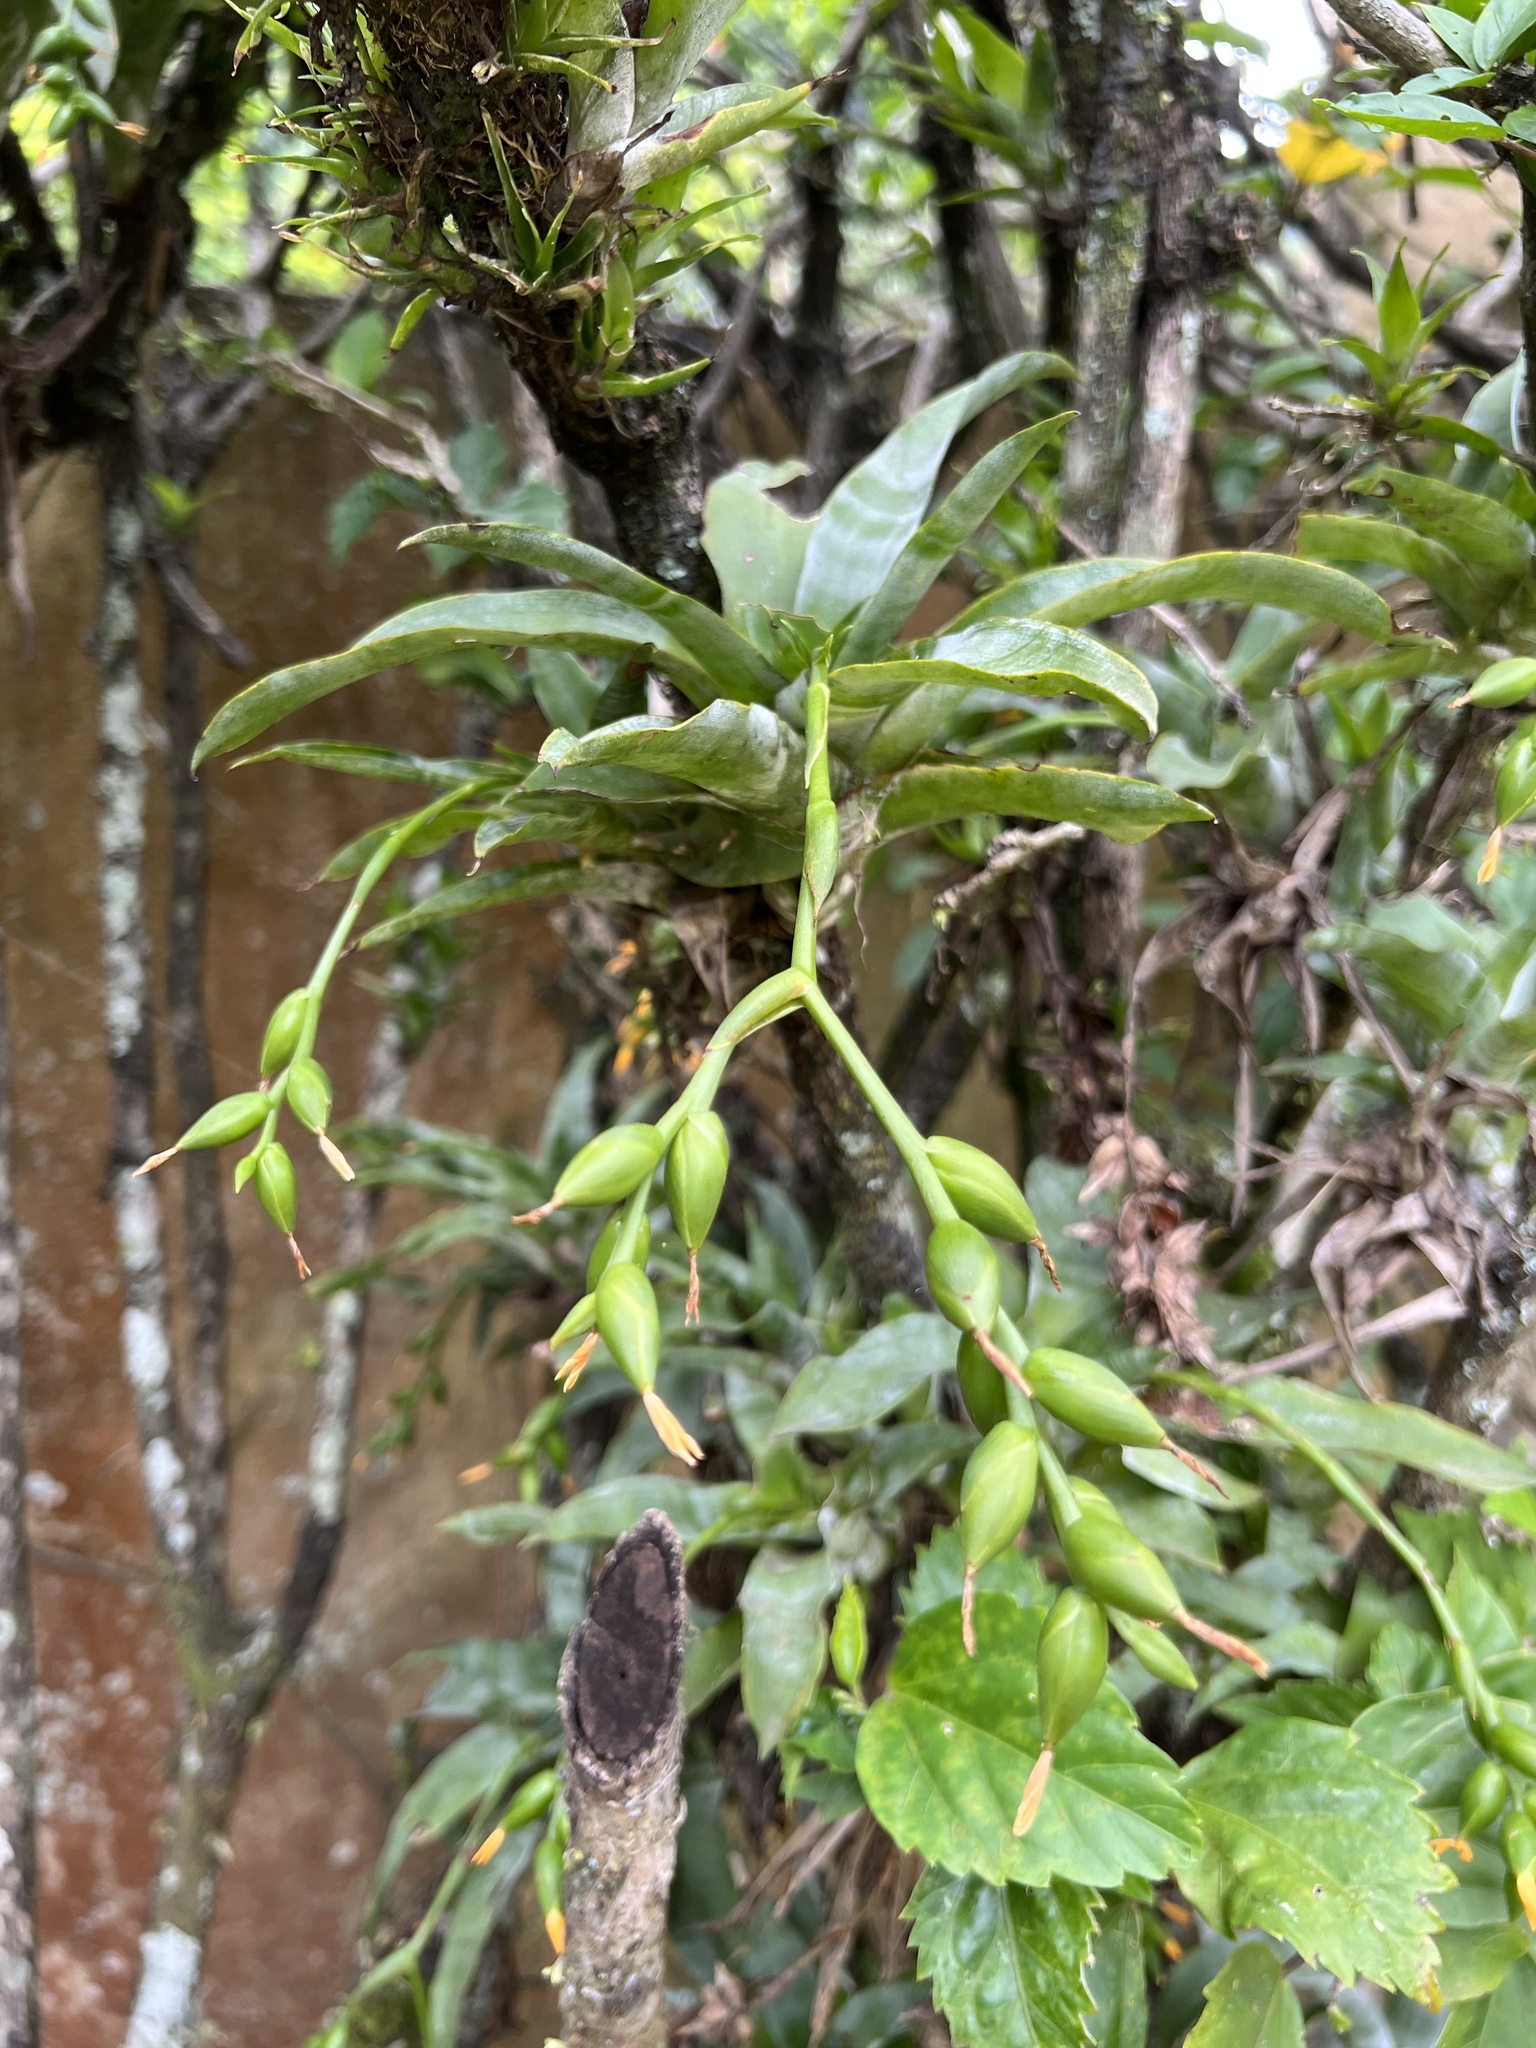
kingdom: Plantae
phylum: Tracheophyta
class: Liliopsida
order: Poales
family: Bromeliaceae
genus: Catopsis
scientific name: Catopsis nutans
